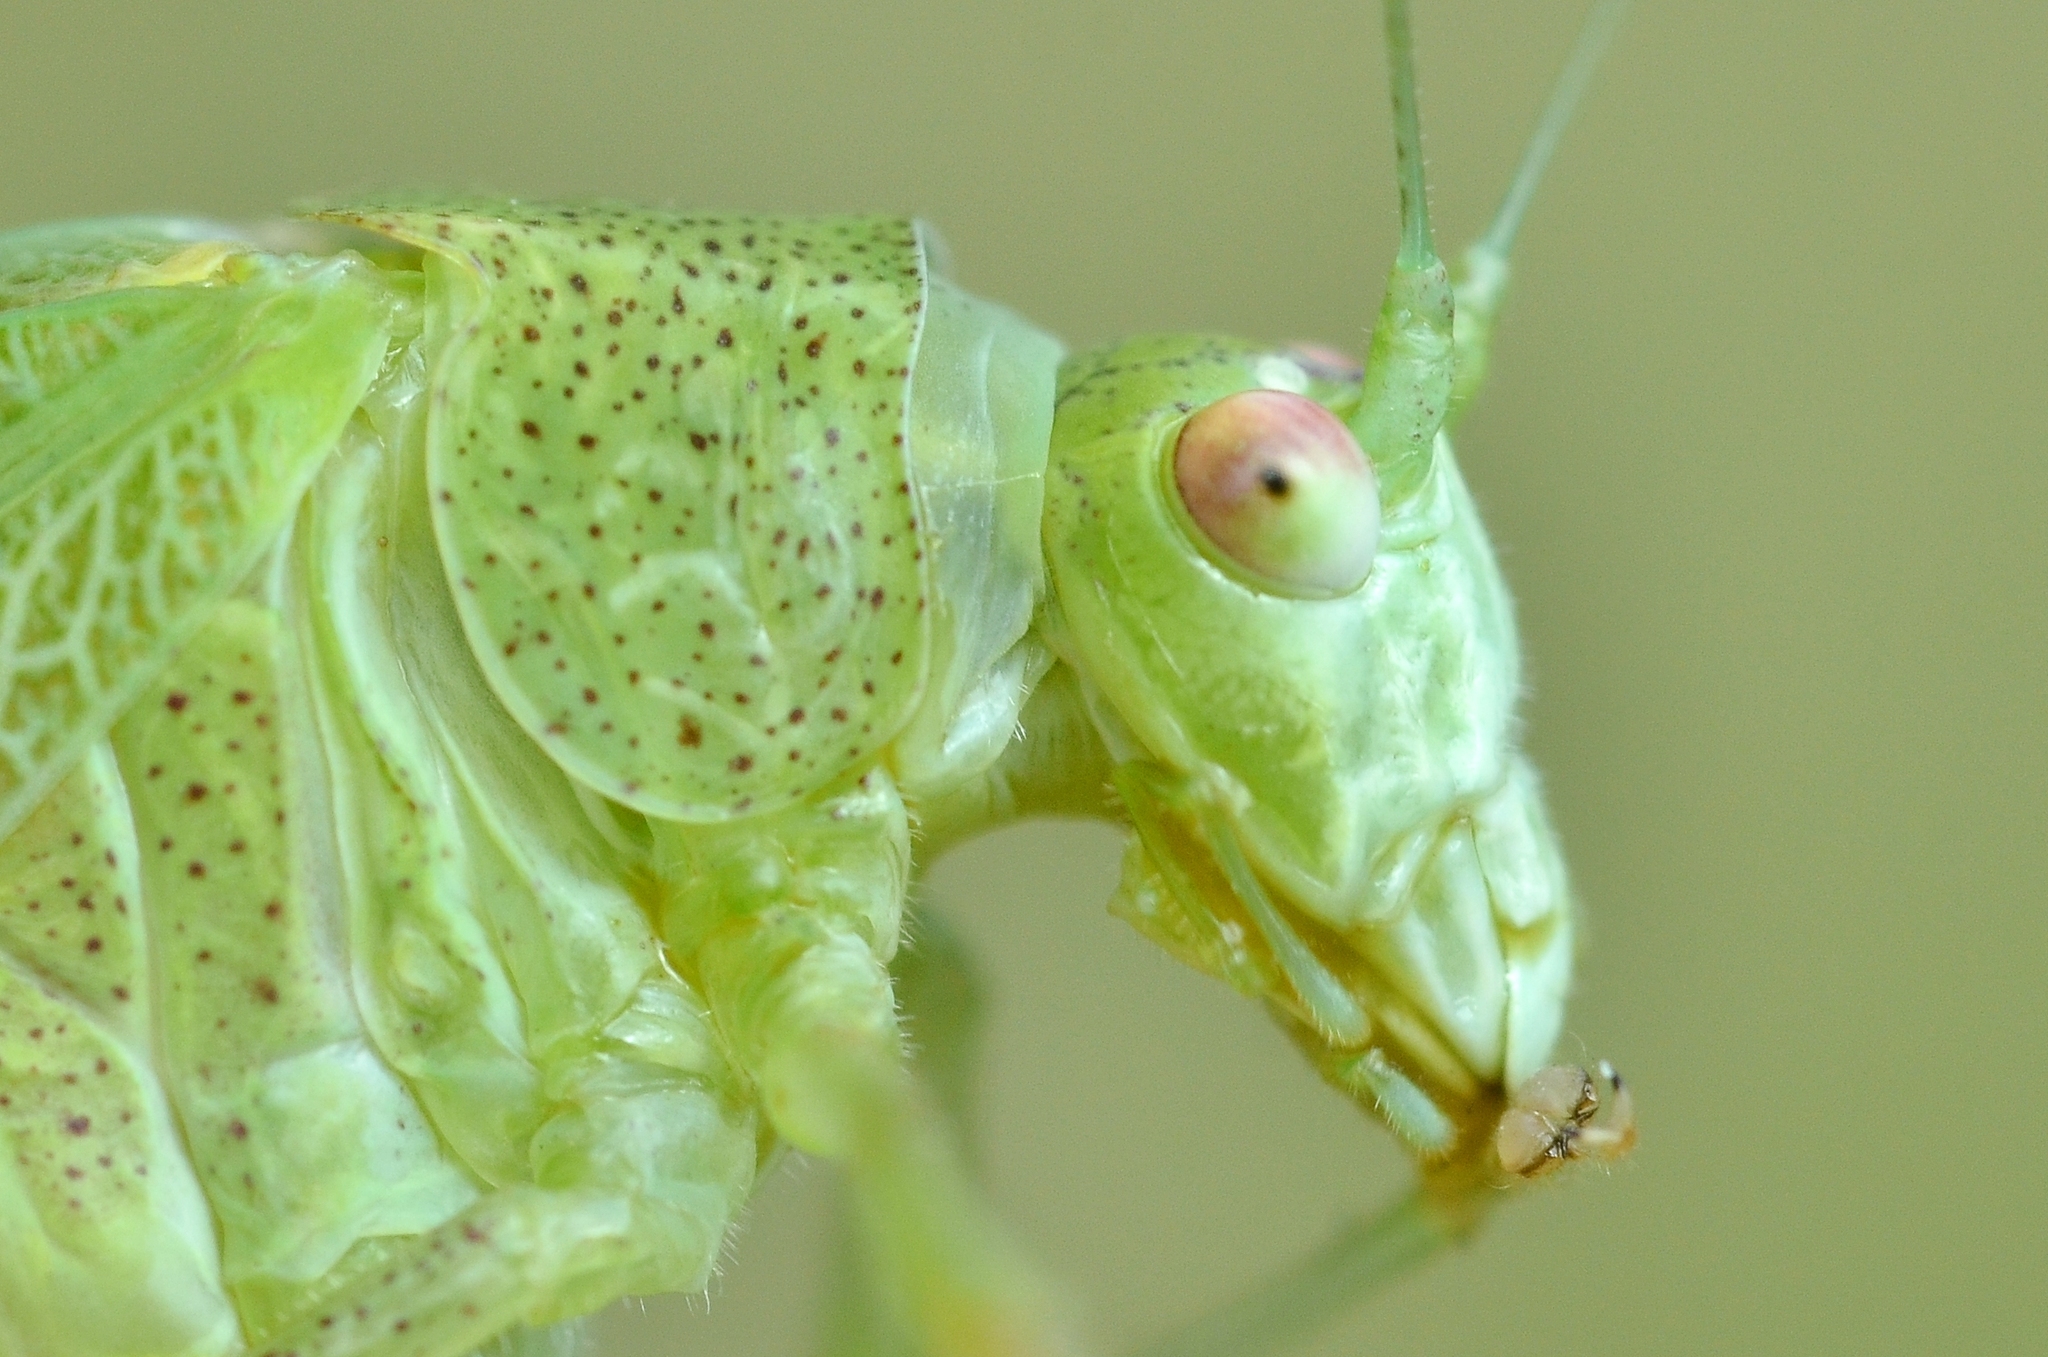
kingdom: Animalia
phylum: Arthropoda
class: Insecta
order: Orthoptera
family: Tettigoniidae
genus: Phaneroptera
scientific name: Phaneroptera nana
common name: Southern sickle bush-cricket
